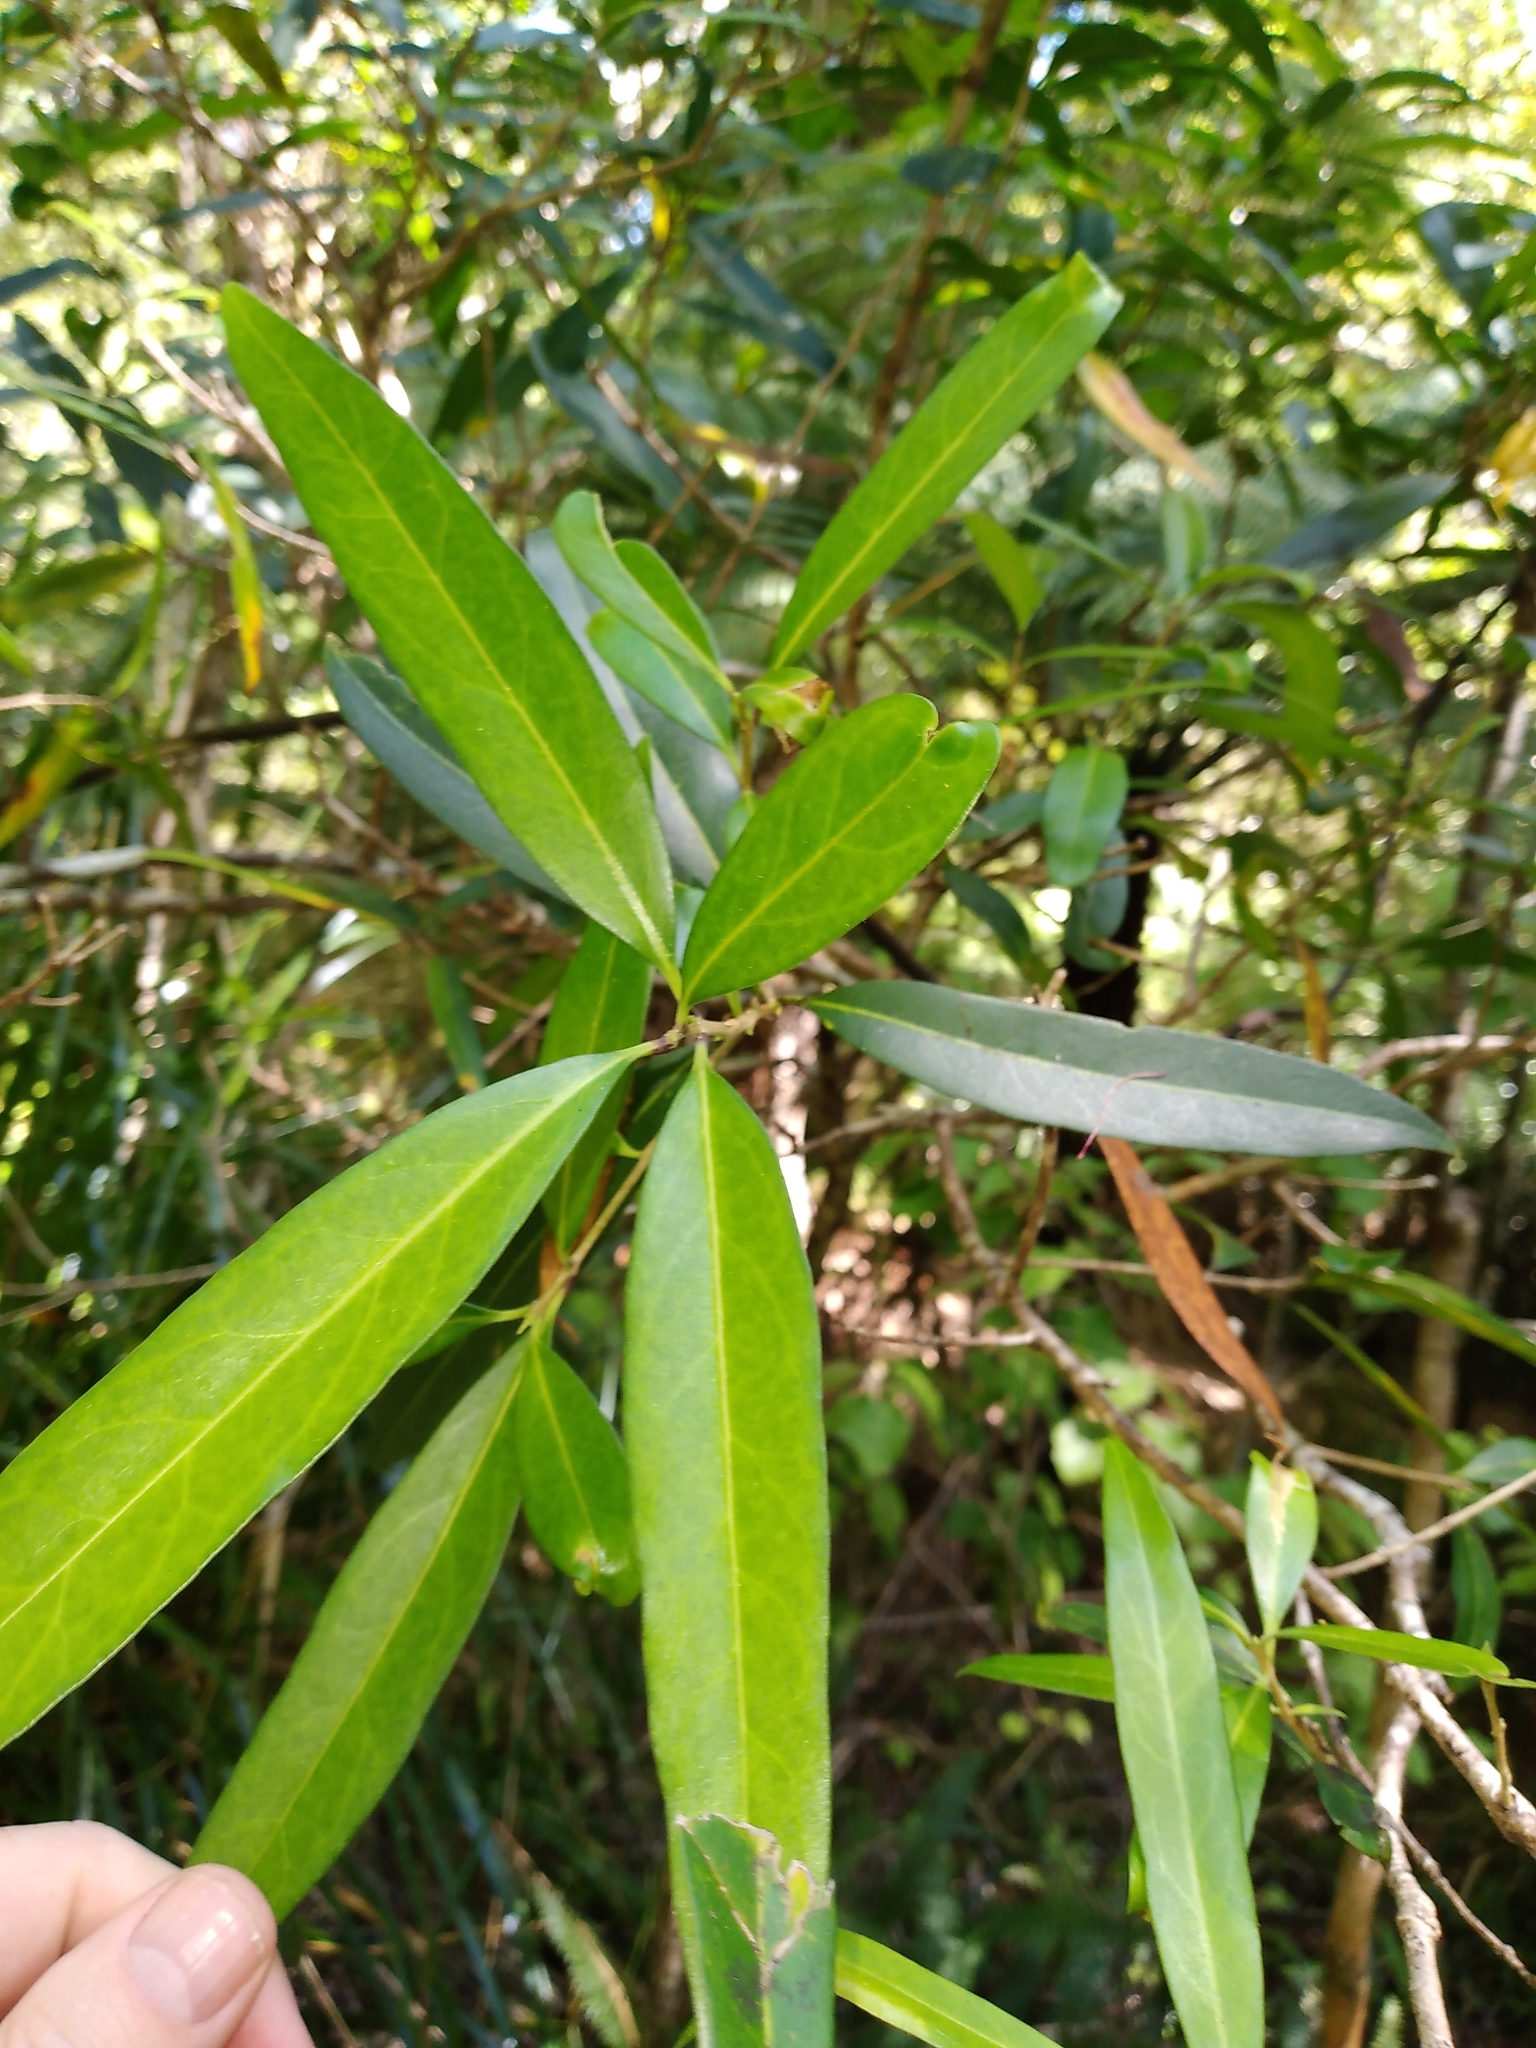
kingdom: Plantae
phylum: Tracheophyta
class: Magnoliopsida
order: Lamiales
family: Oleaceae
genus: Nestegis
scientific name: Nestegis lanceolata
